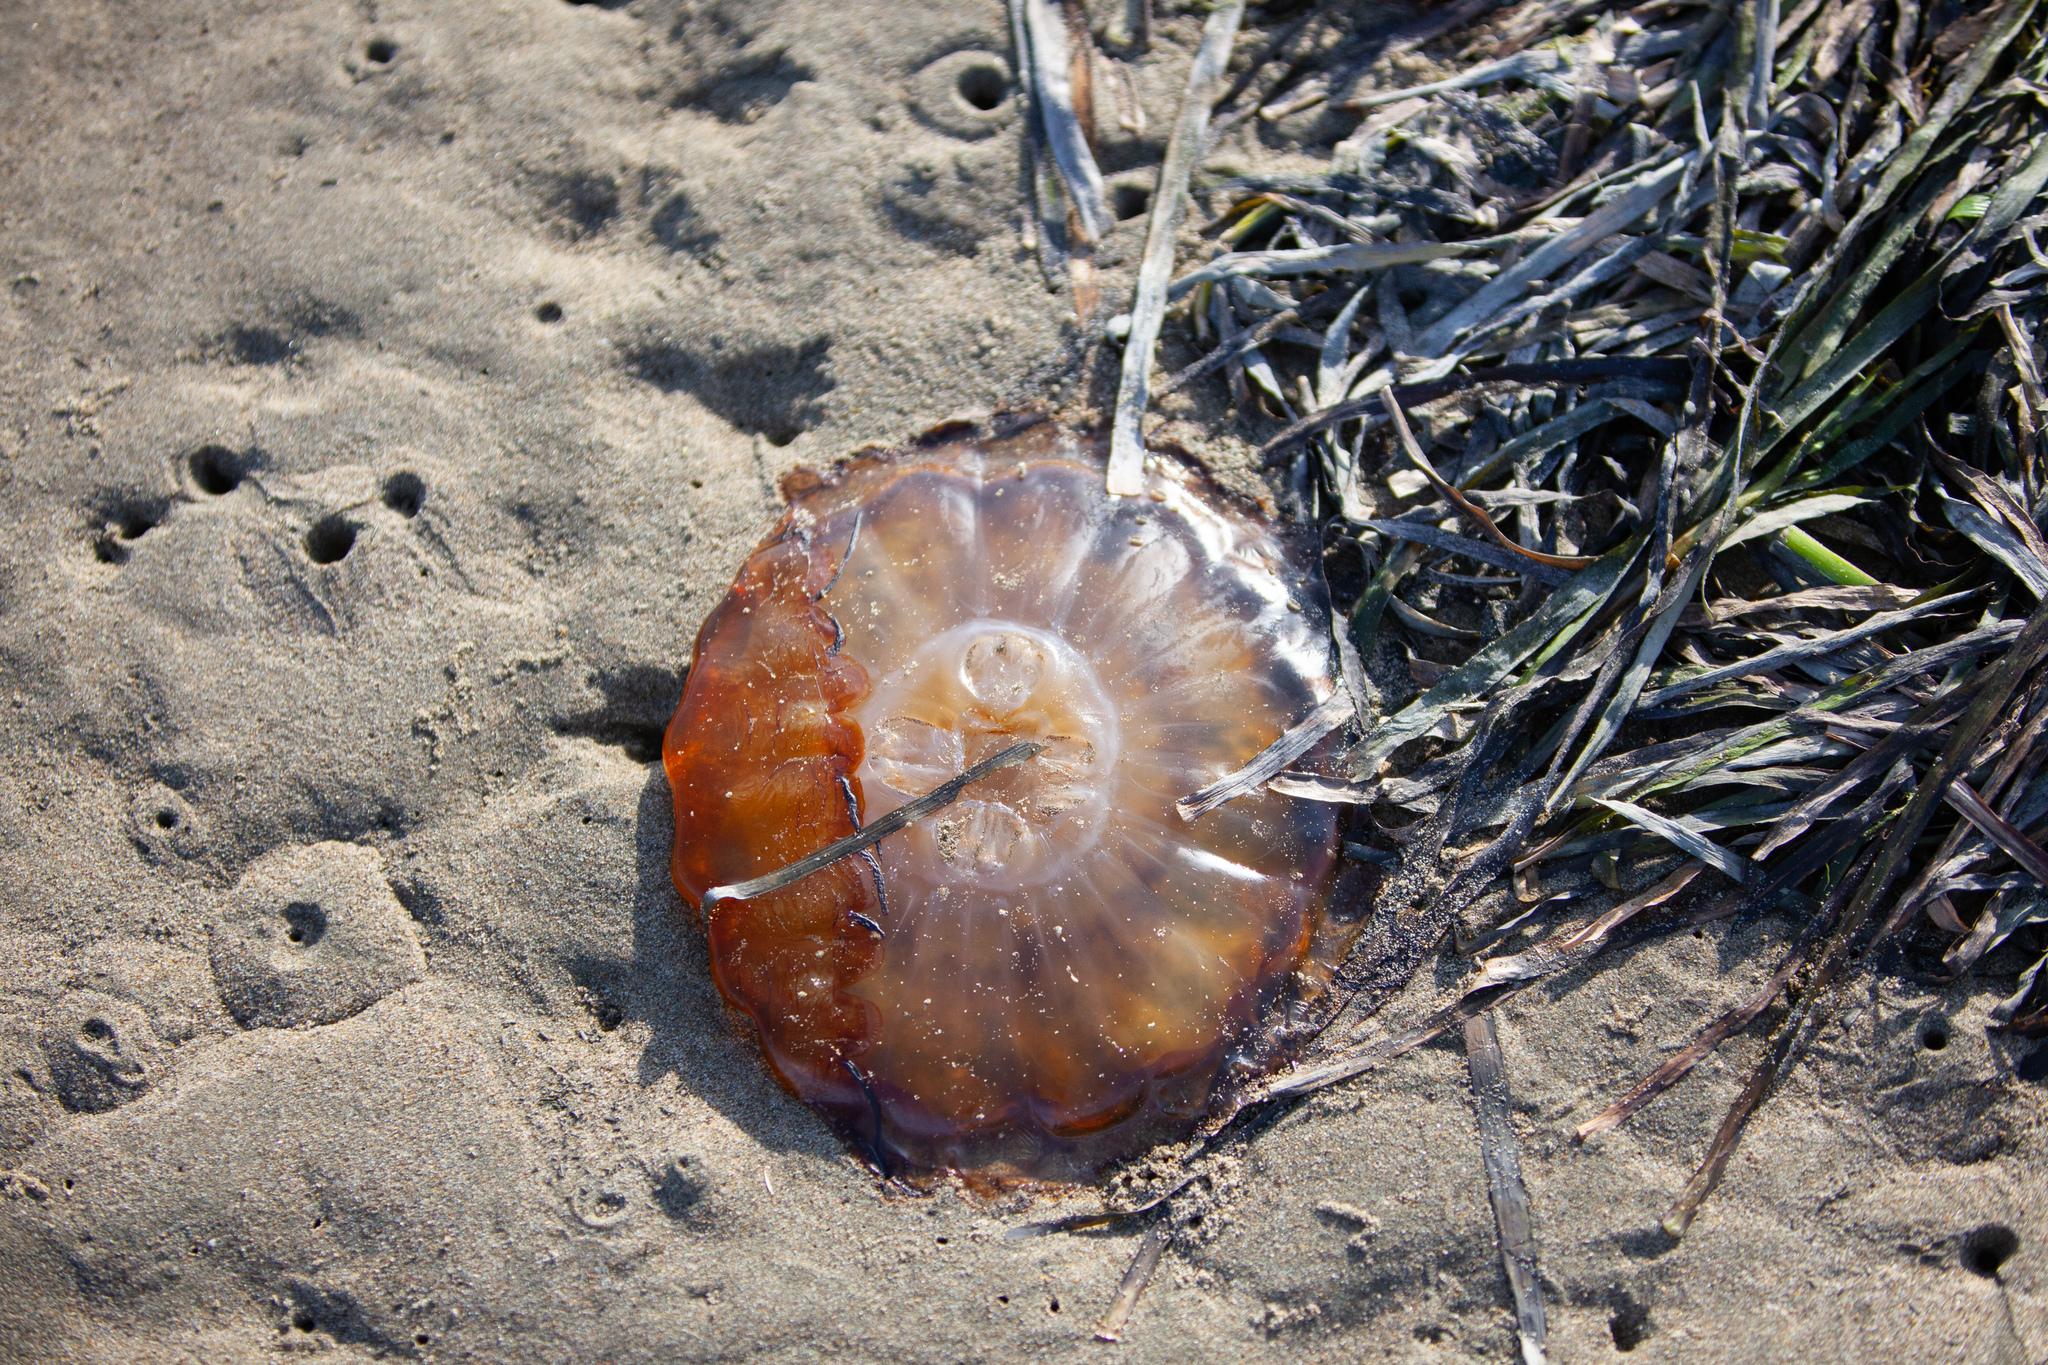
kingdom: Animalia
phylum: Cnidaria
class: Scyphozoa
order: Semaeostomeae
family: Pelagiidae
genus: Chrysaora
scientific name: Chrysaora fuscescens
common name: Sea nettle
